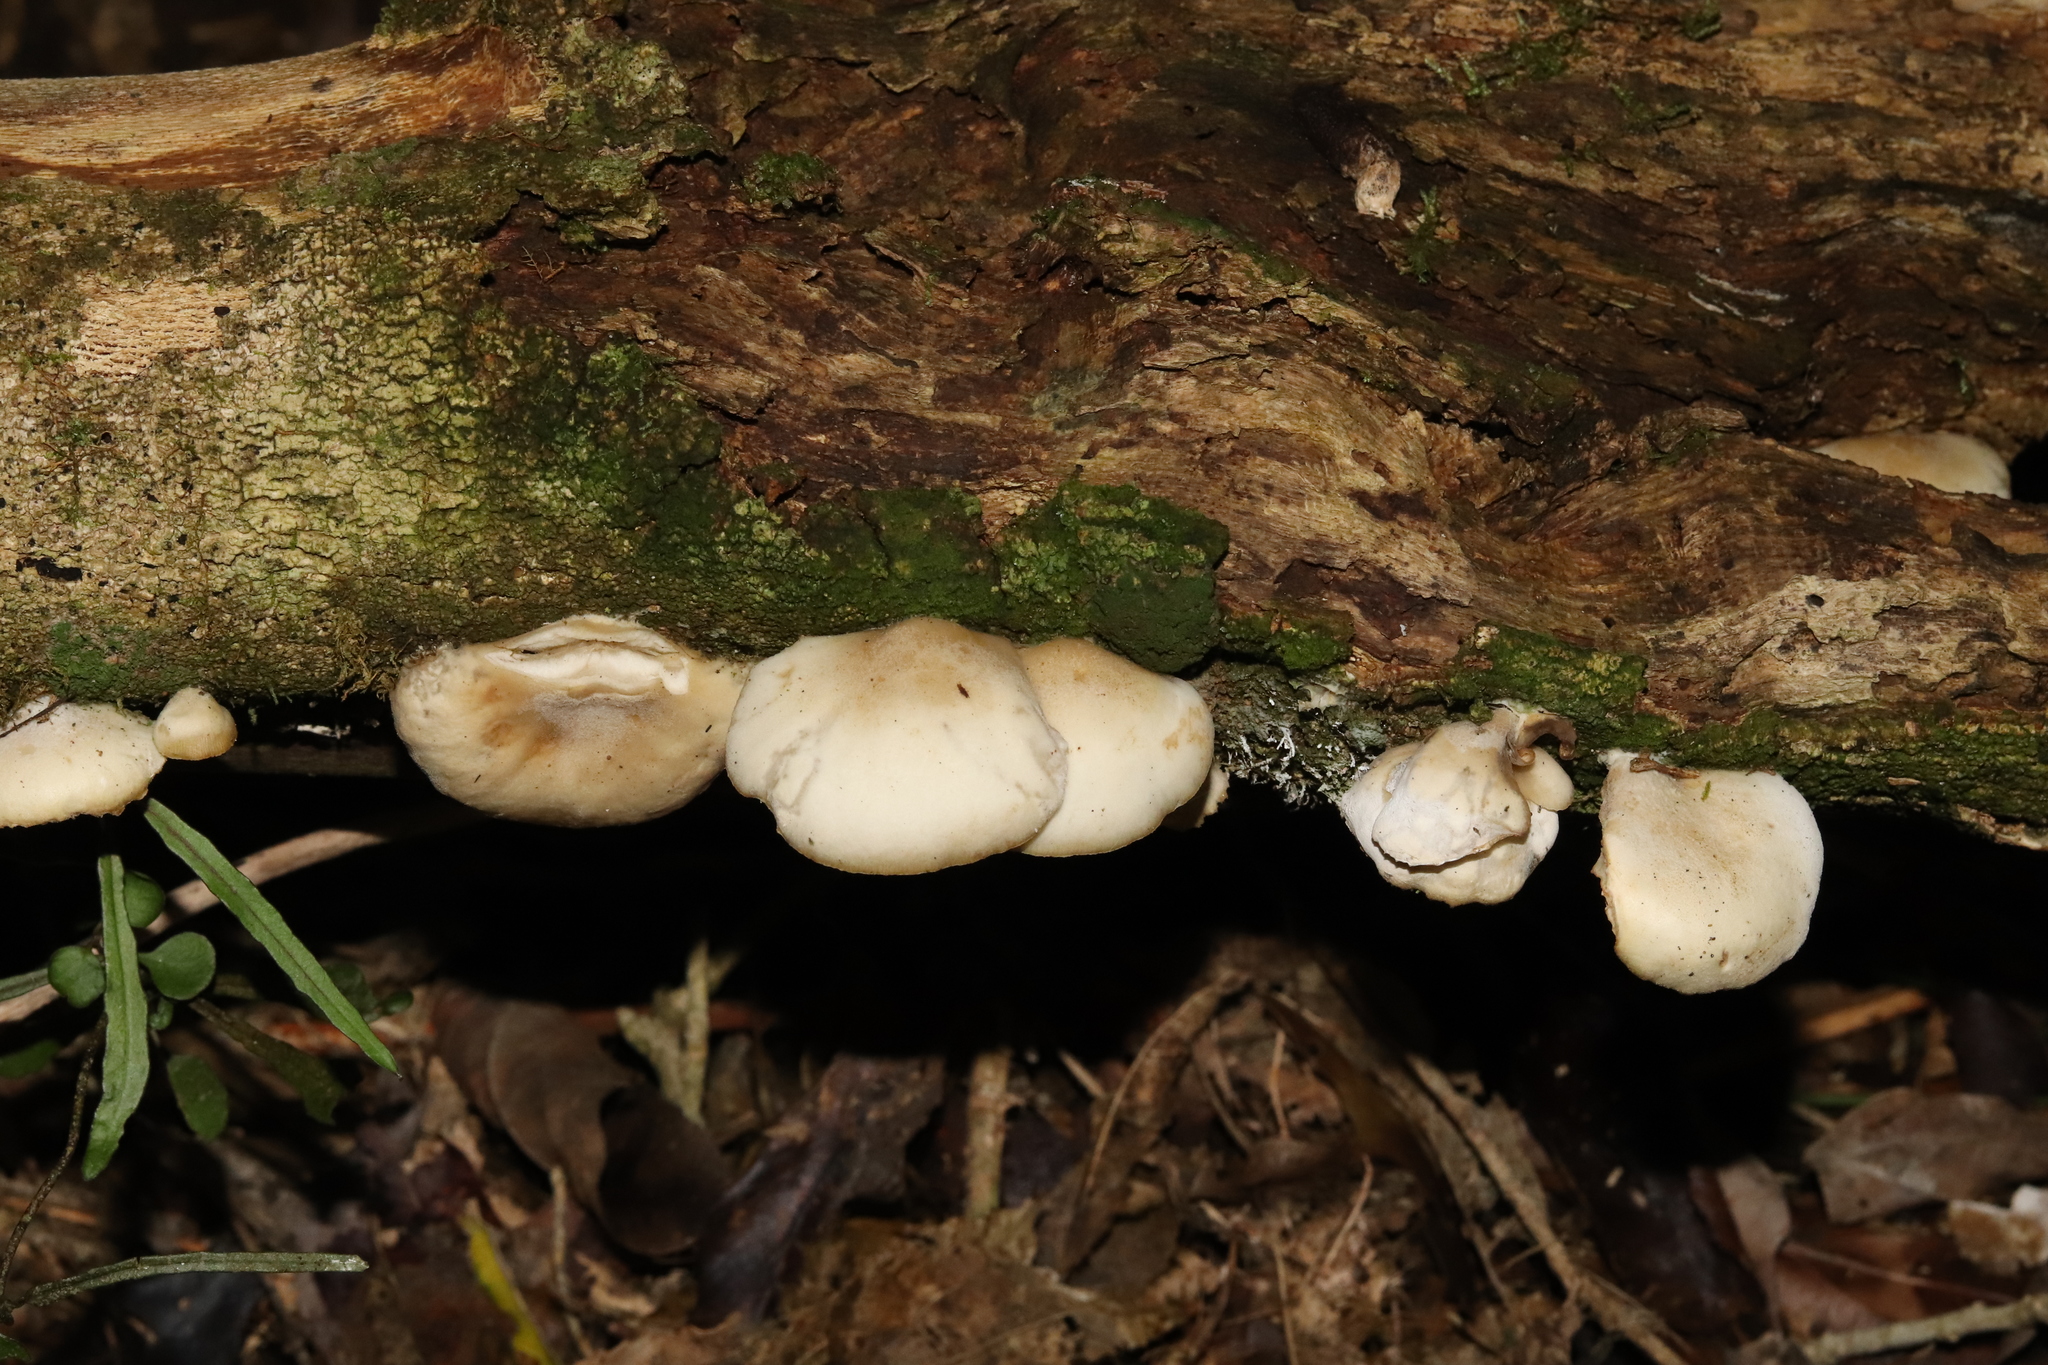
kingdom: Fungi
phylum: Basidiomycota
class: Agaricomycetes
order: Agaricales
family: Tricholomataceae
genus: Conchomyces
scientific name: Conchomyces bursiformis
